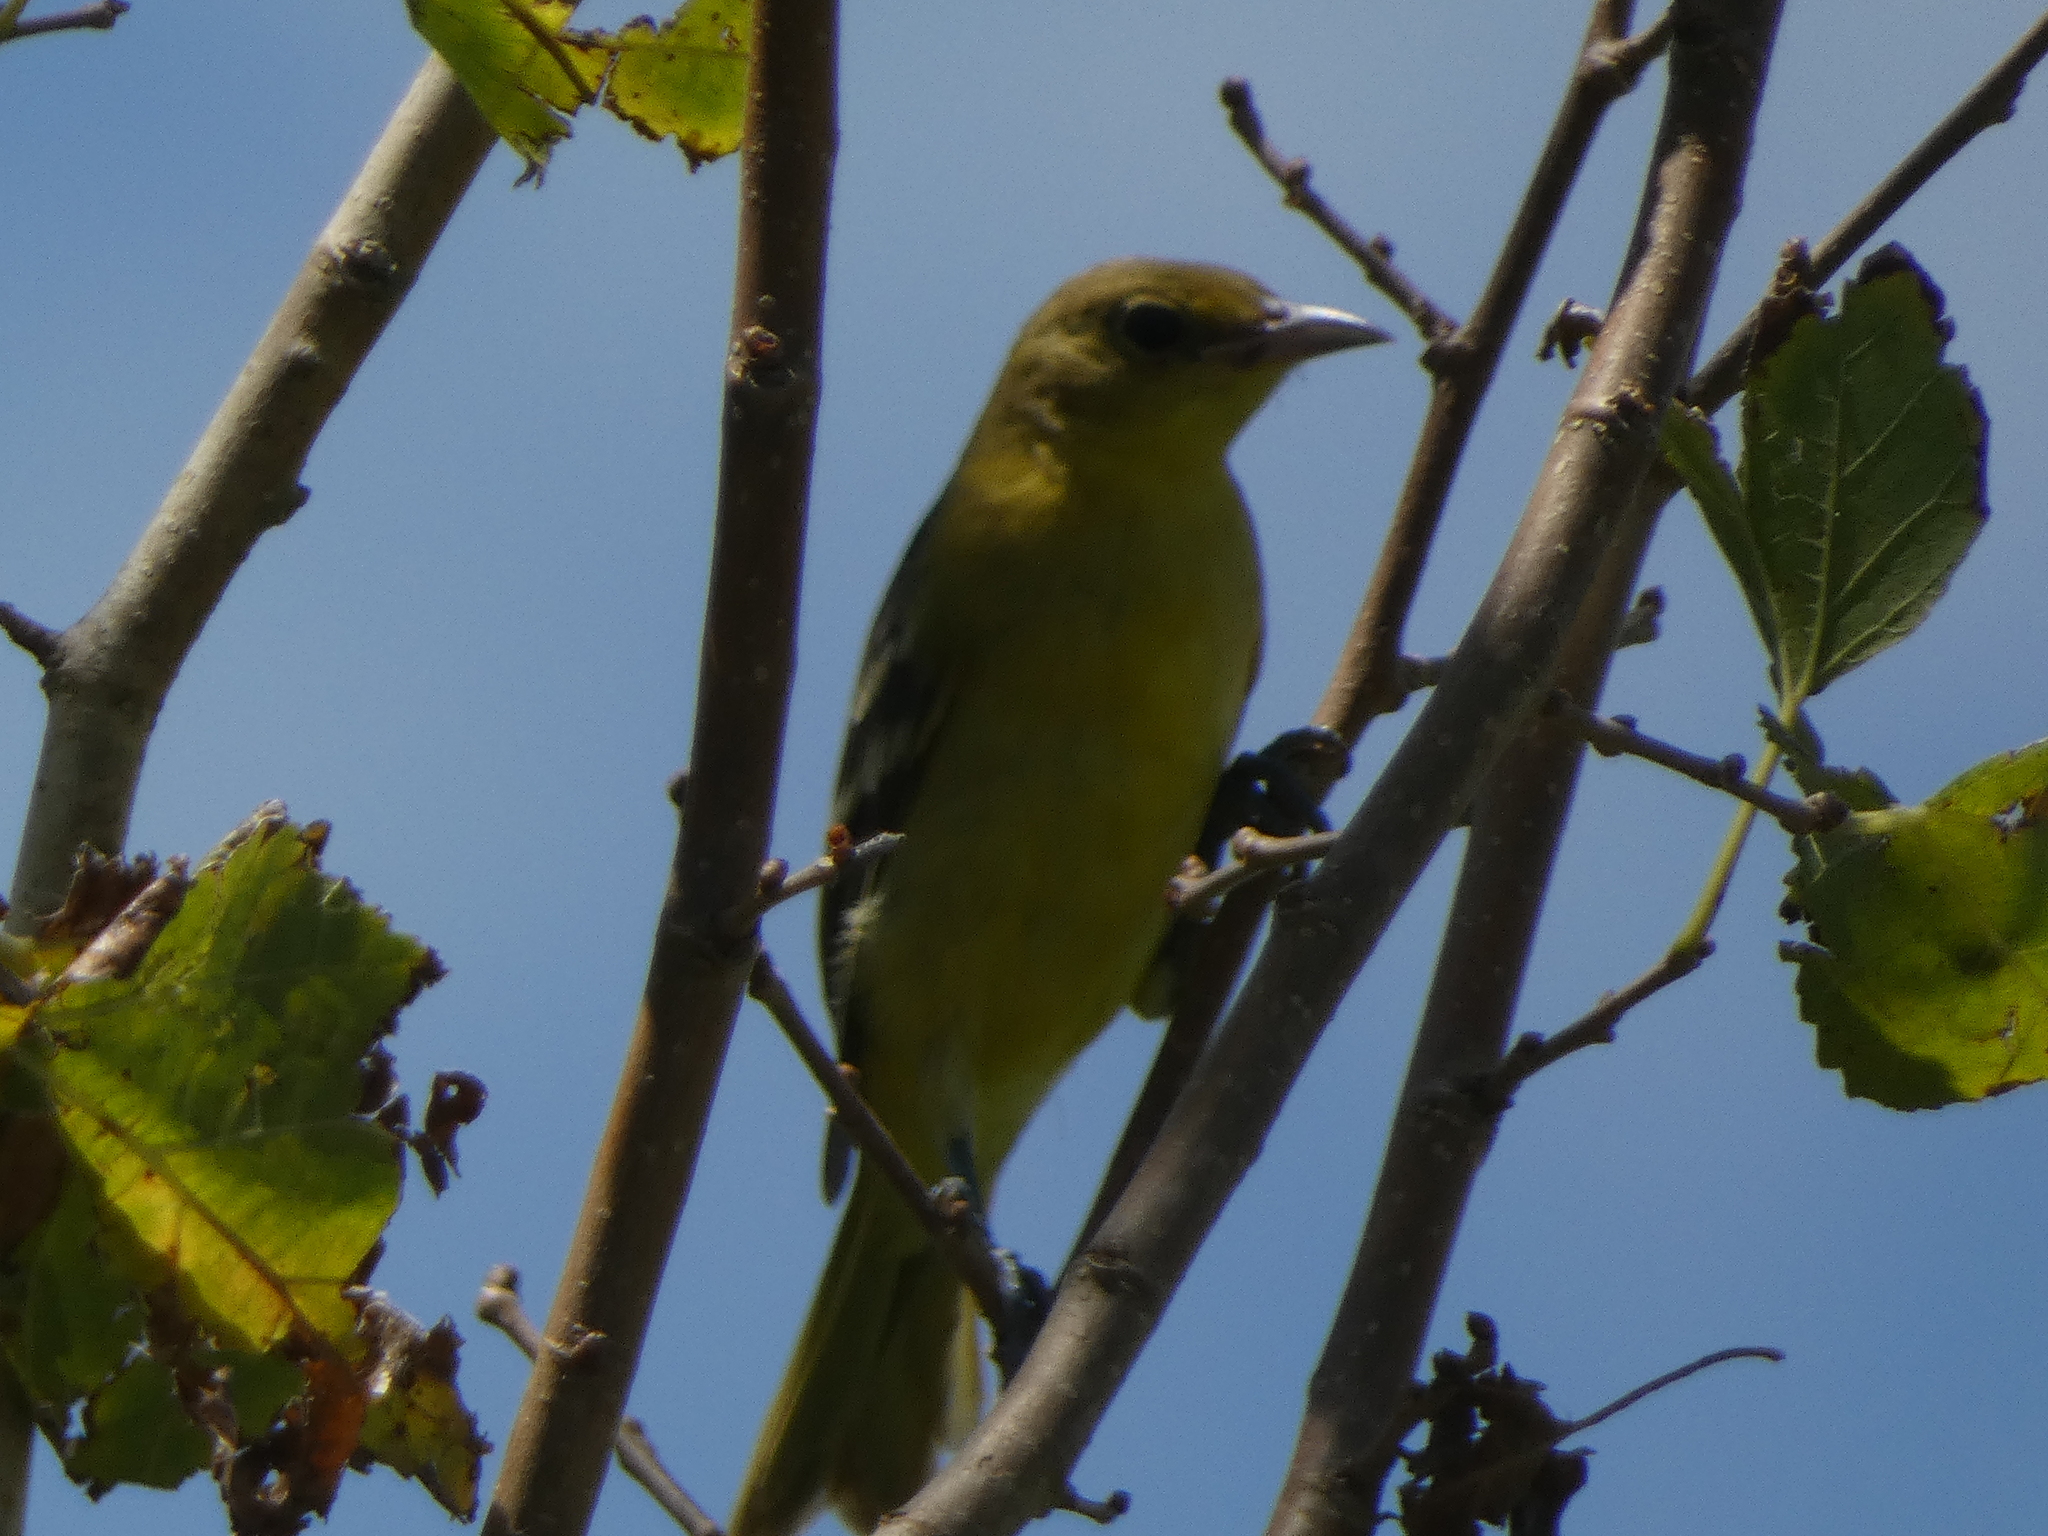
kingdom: Animalia
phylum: Chordata
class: Aves
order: Passeriformes
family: Icteridae
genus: Icterus
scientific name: Icterus spurius
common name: Orchard oriole
